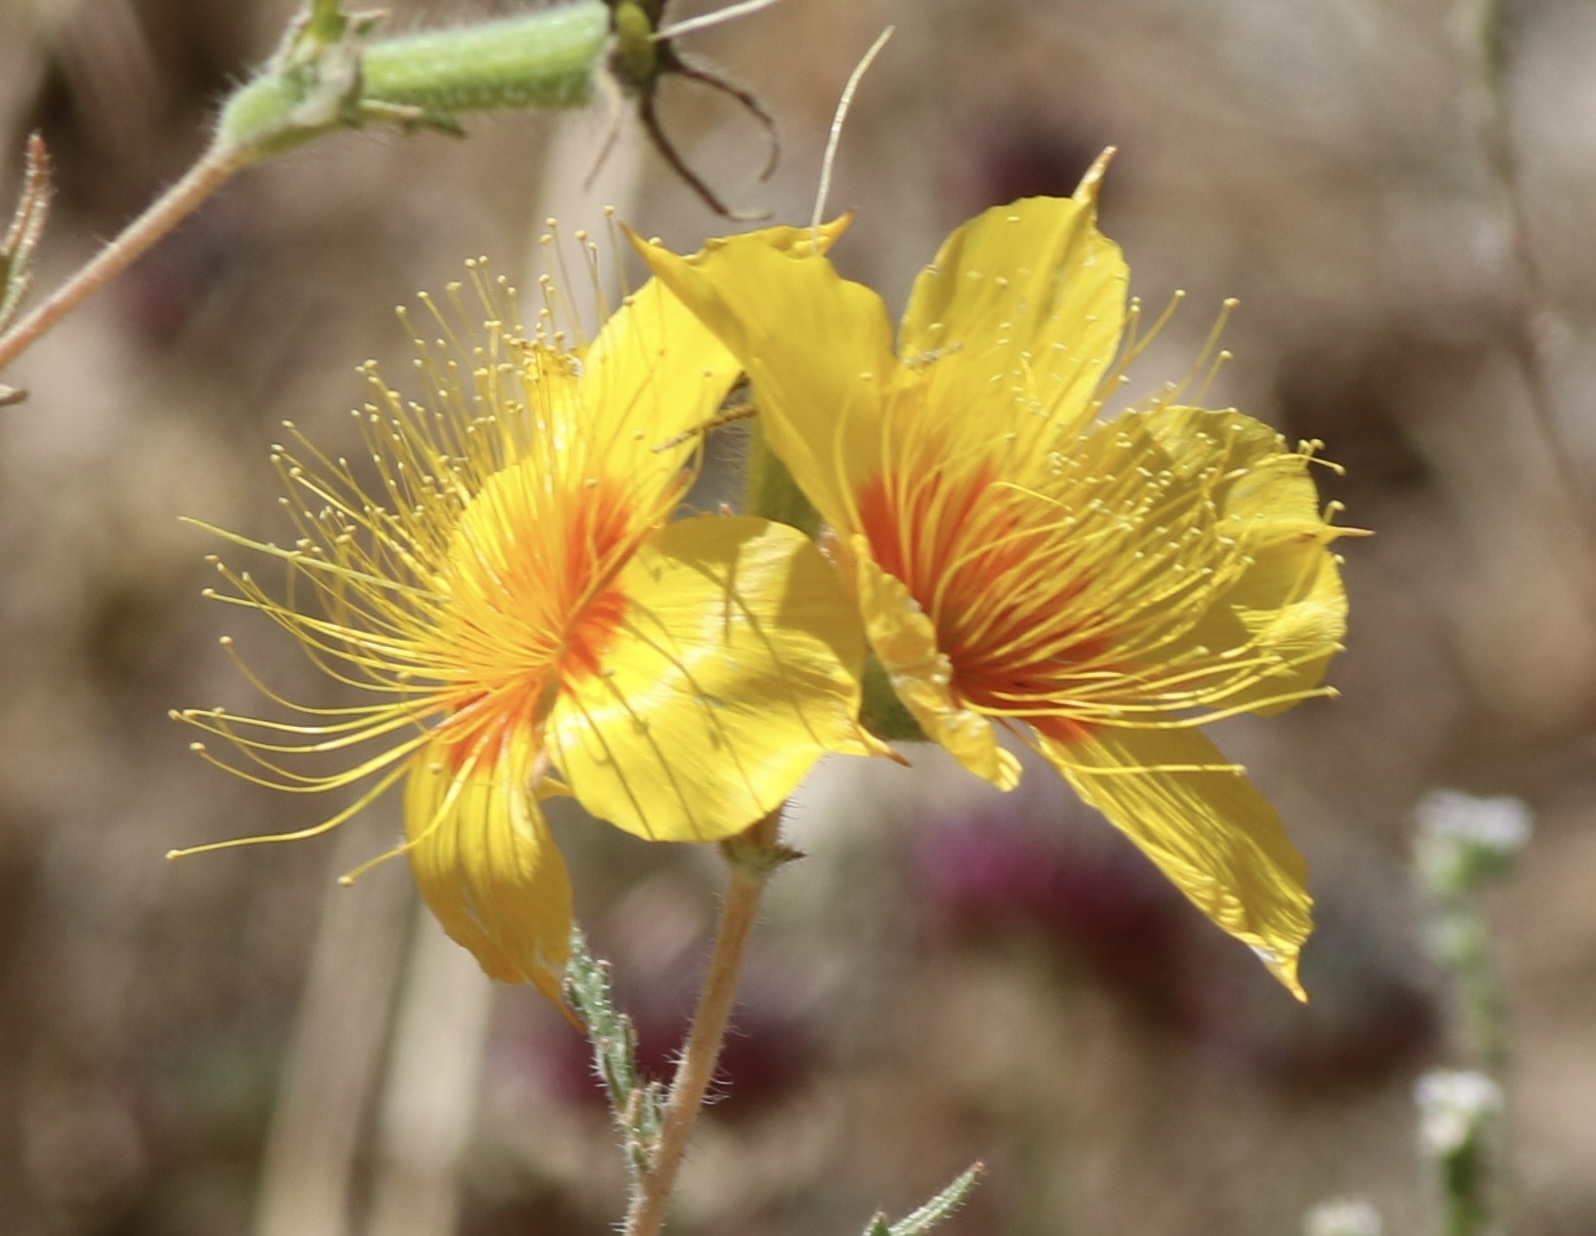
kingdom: Plantae
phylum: Tracheophyta
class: Magnoliopsida
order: Cornales
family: Loasaceae
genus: Mentzelia
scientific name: Mentzelia lindleyi
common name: Golden bartonia
